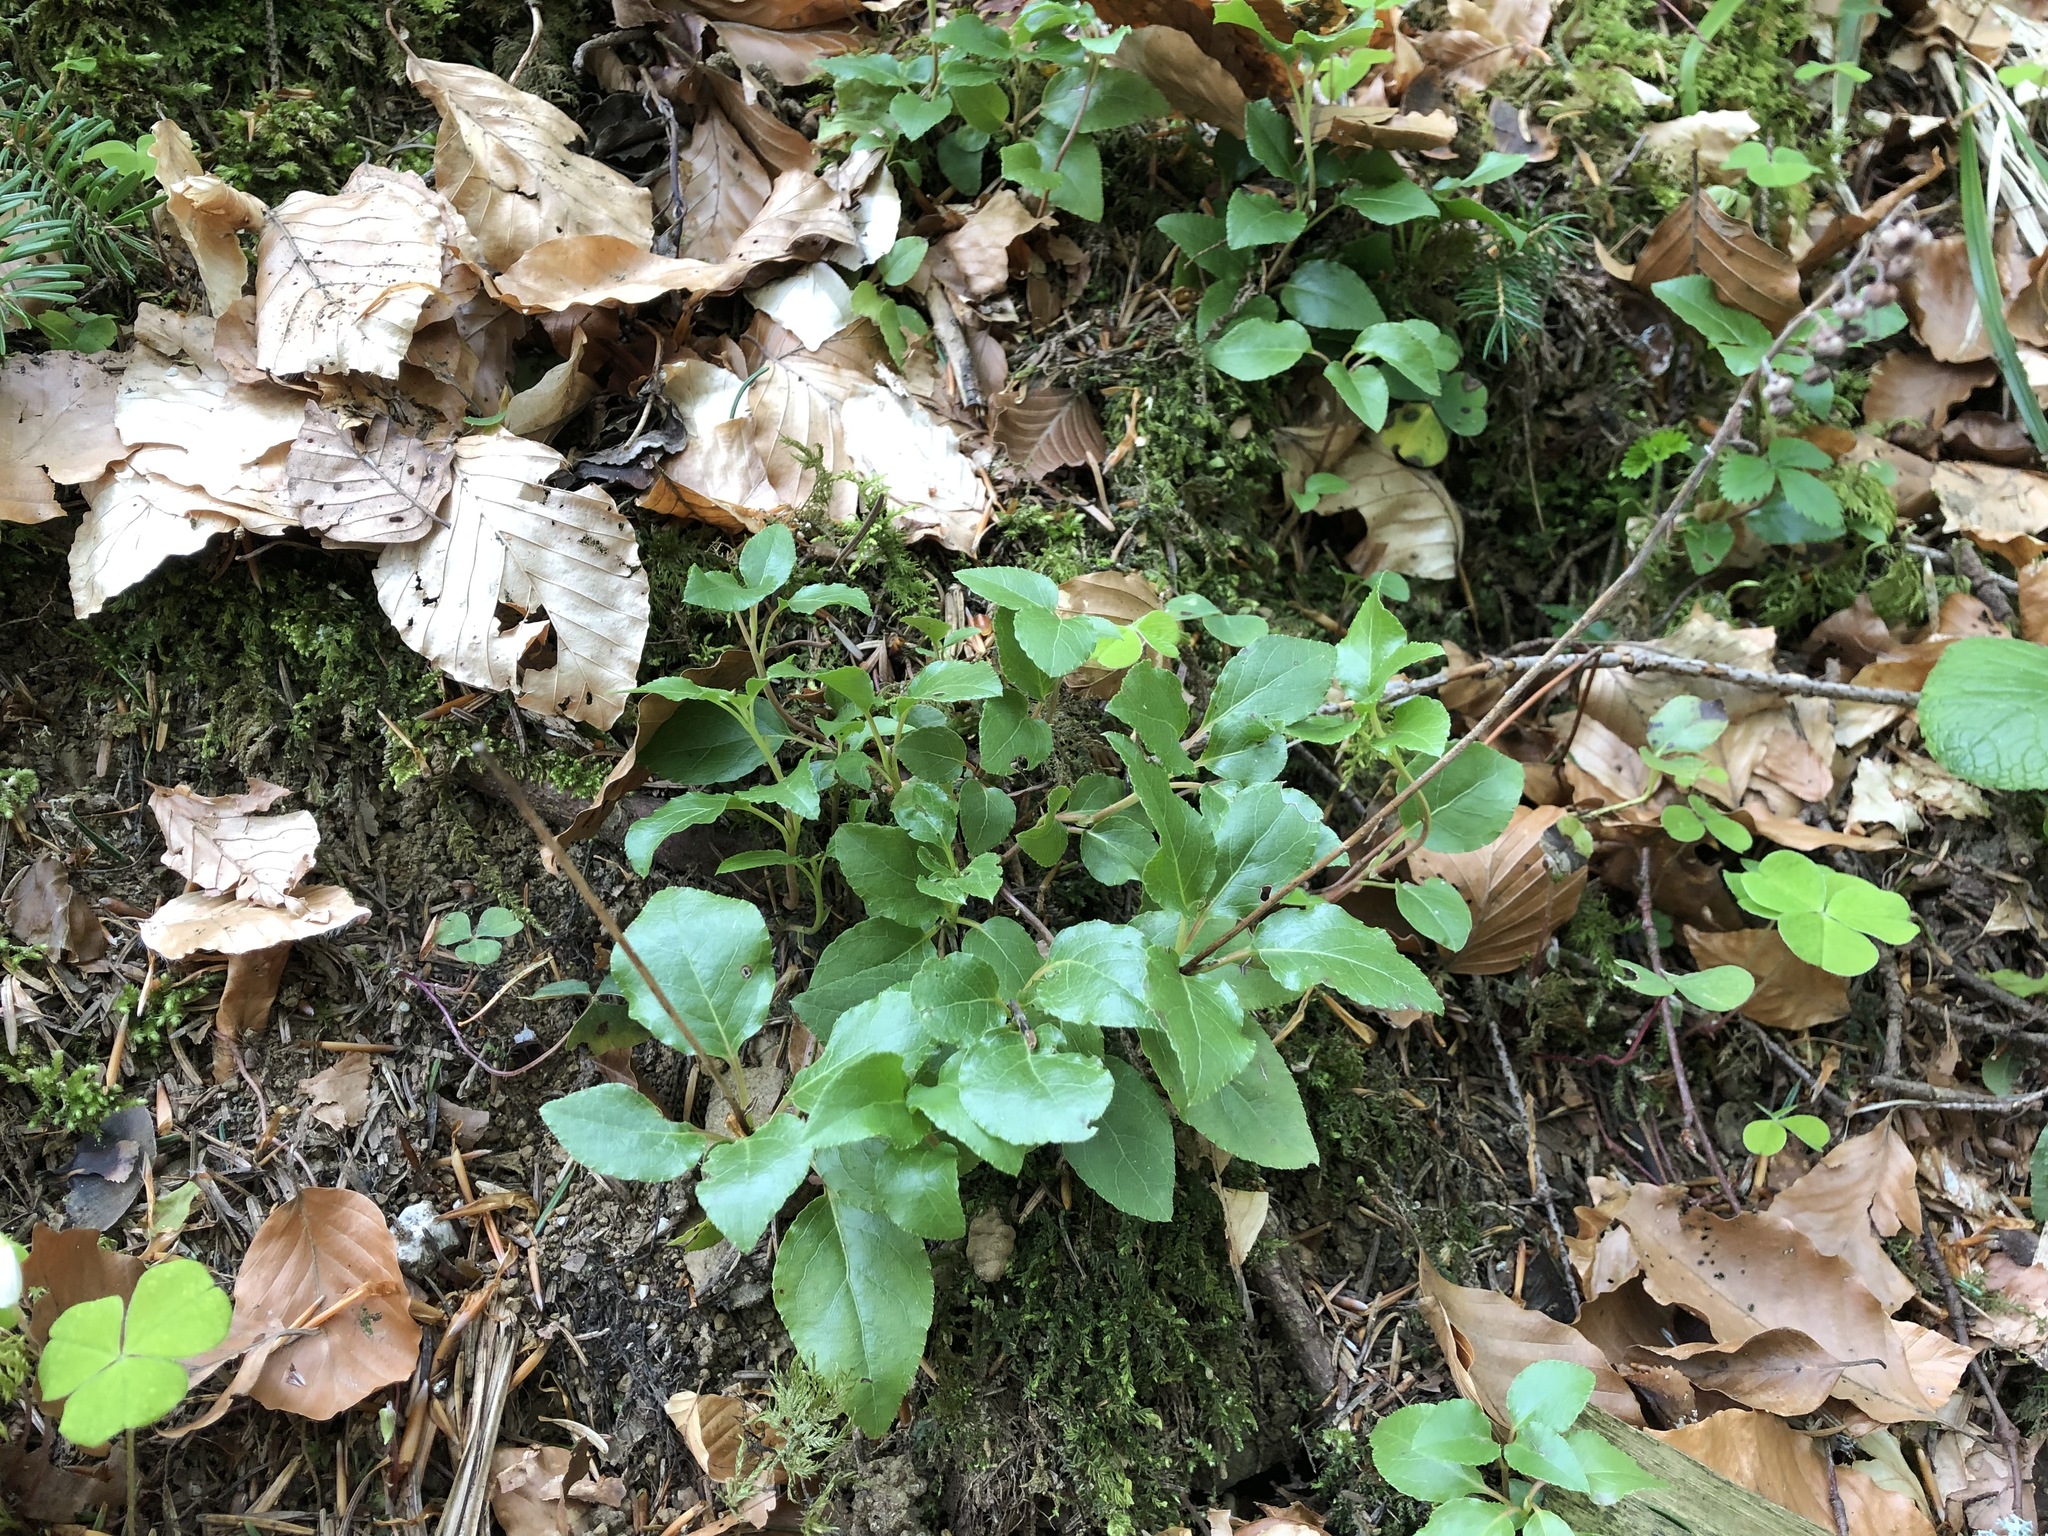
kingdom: Plantae
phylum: Tracheophyta
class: Magnoliopsida
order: Ericales
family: Ericaceae
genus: Orthilia
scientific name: Orthilia secunda
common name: One-sided orthilia
